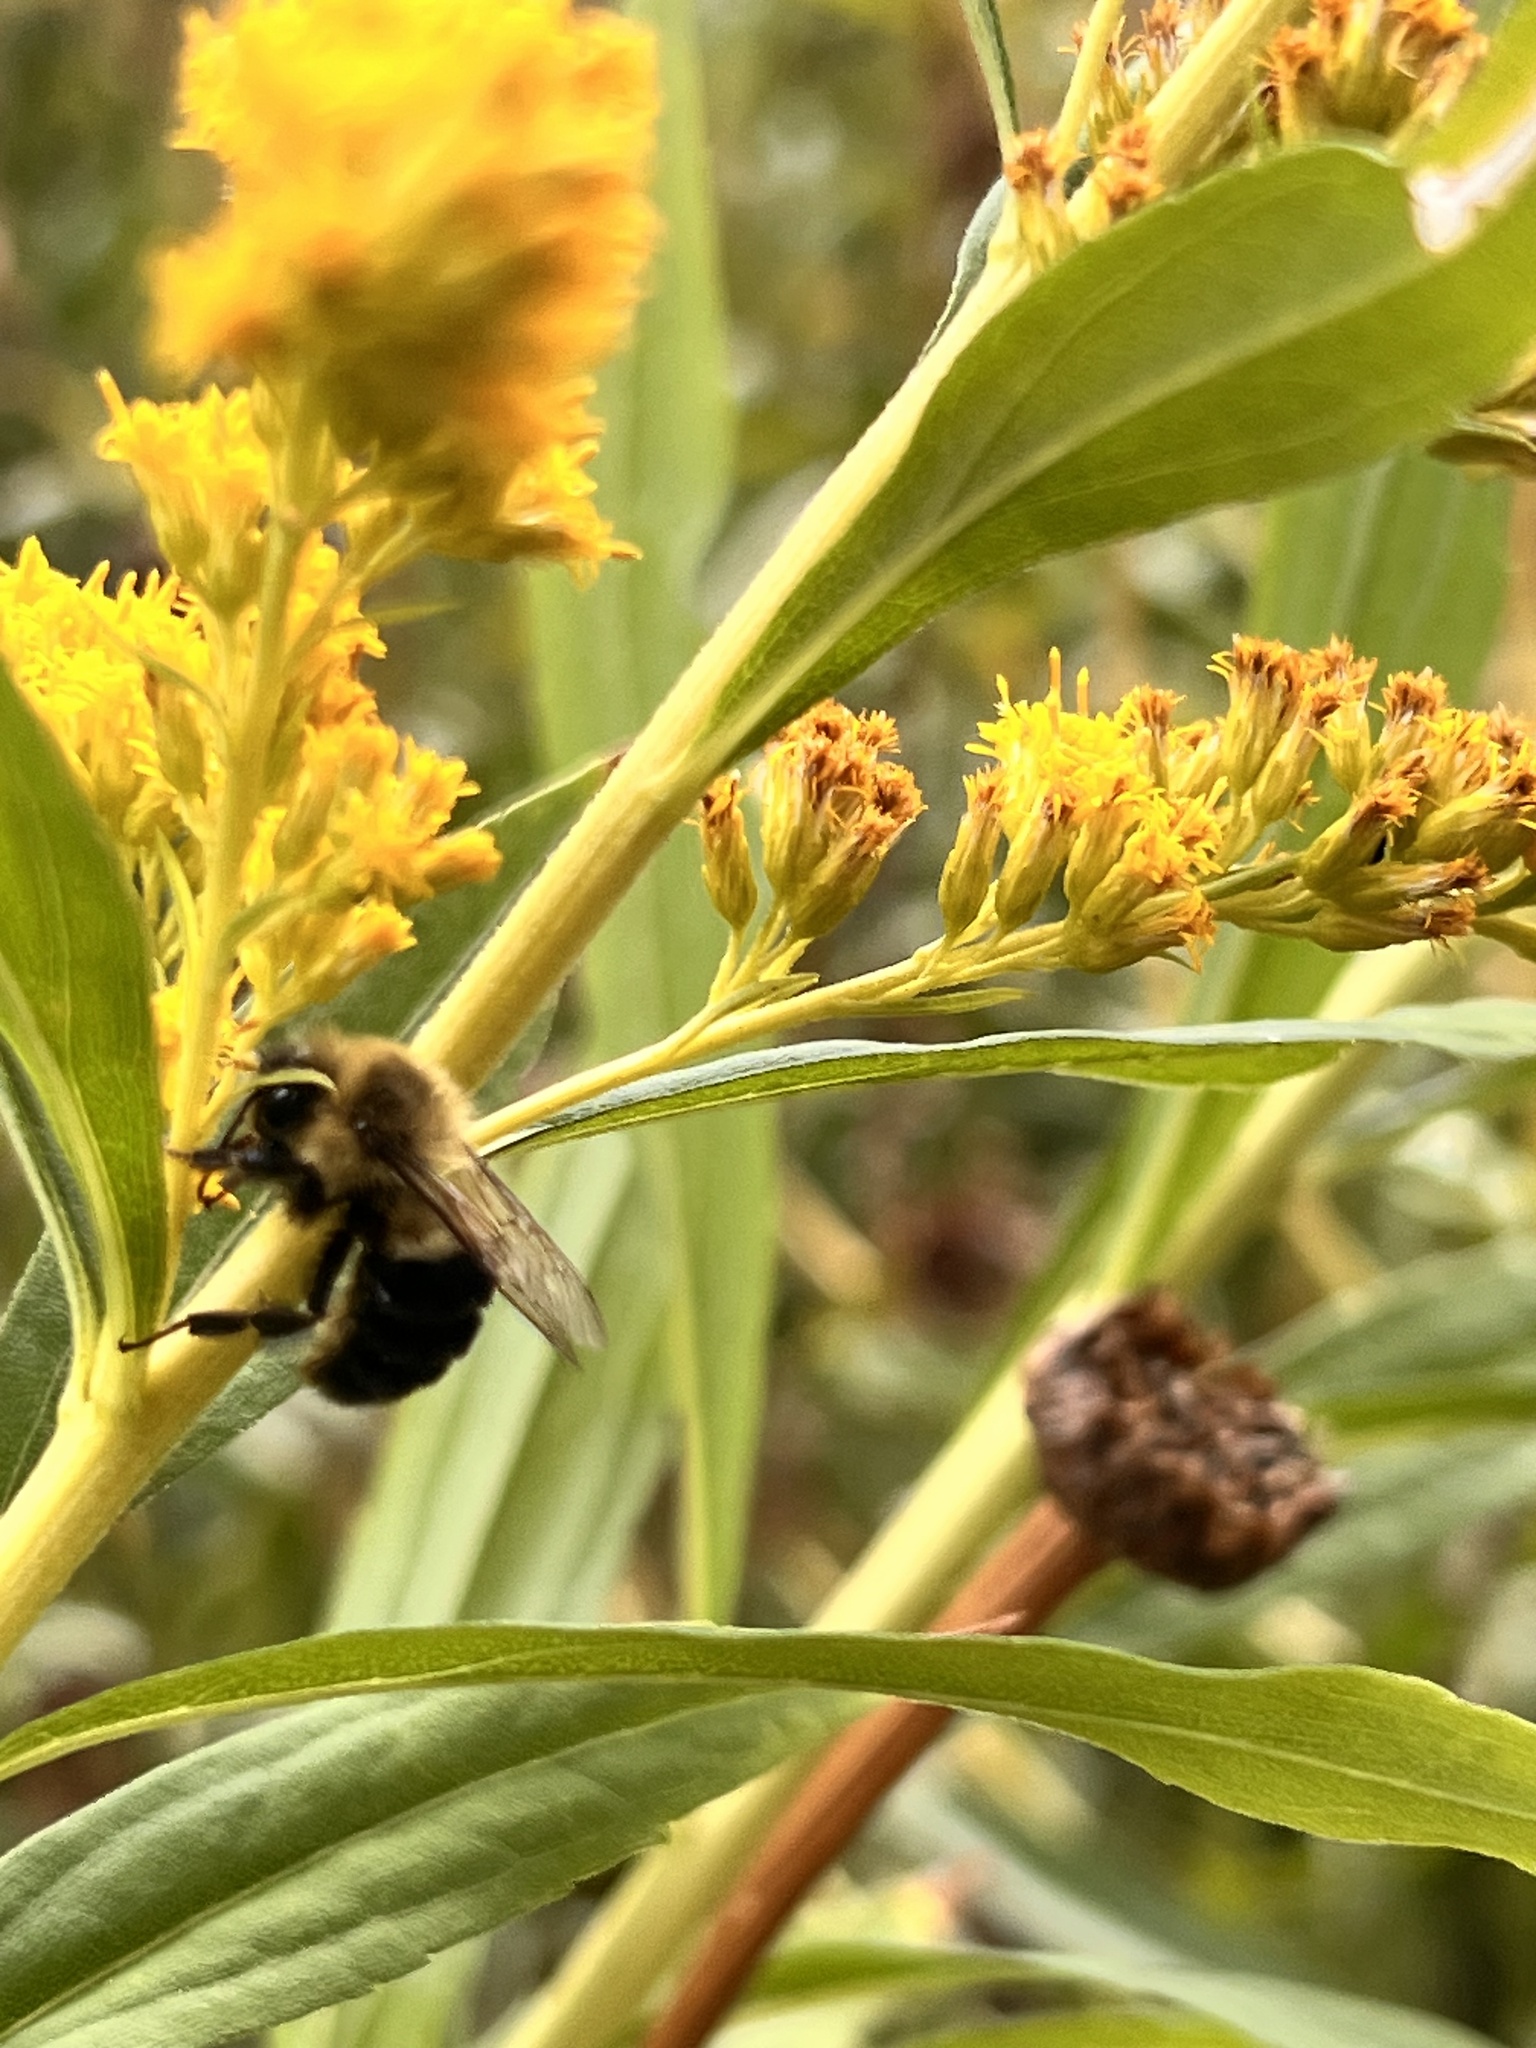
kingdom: Animalia
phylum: Arthropoda
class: Insecta
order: Hymenoptera
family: Apidae
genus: Bombus
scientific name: Bombus impatiens
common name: Common eastern bumble bee
